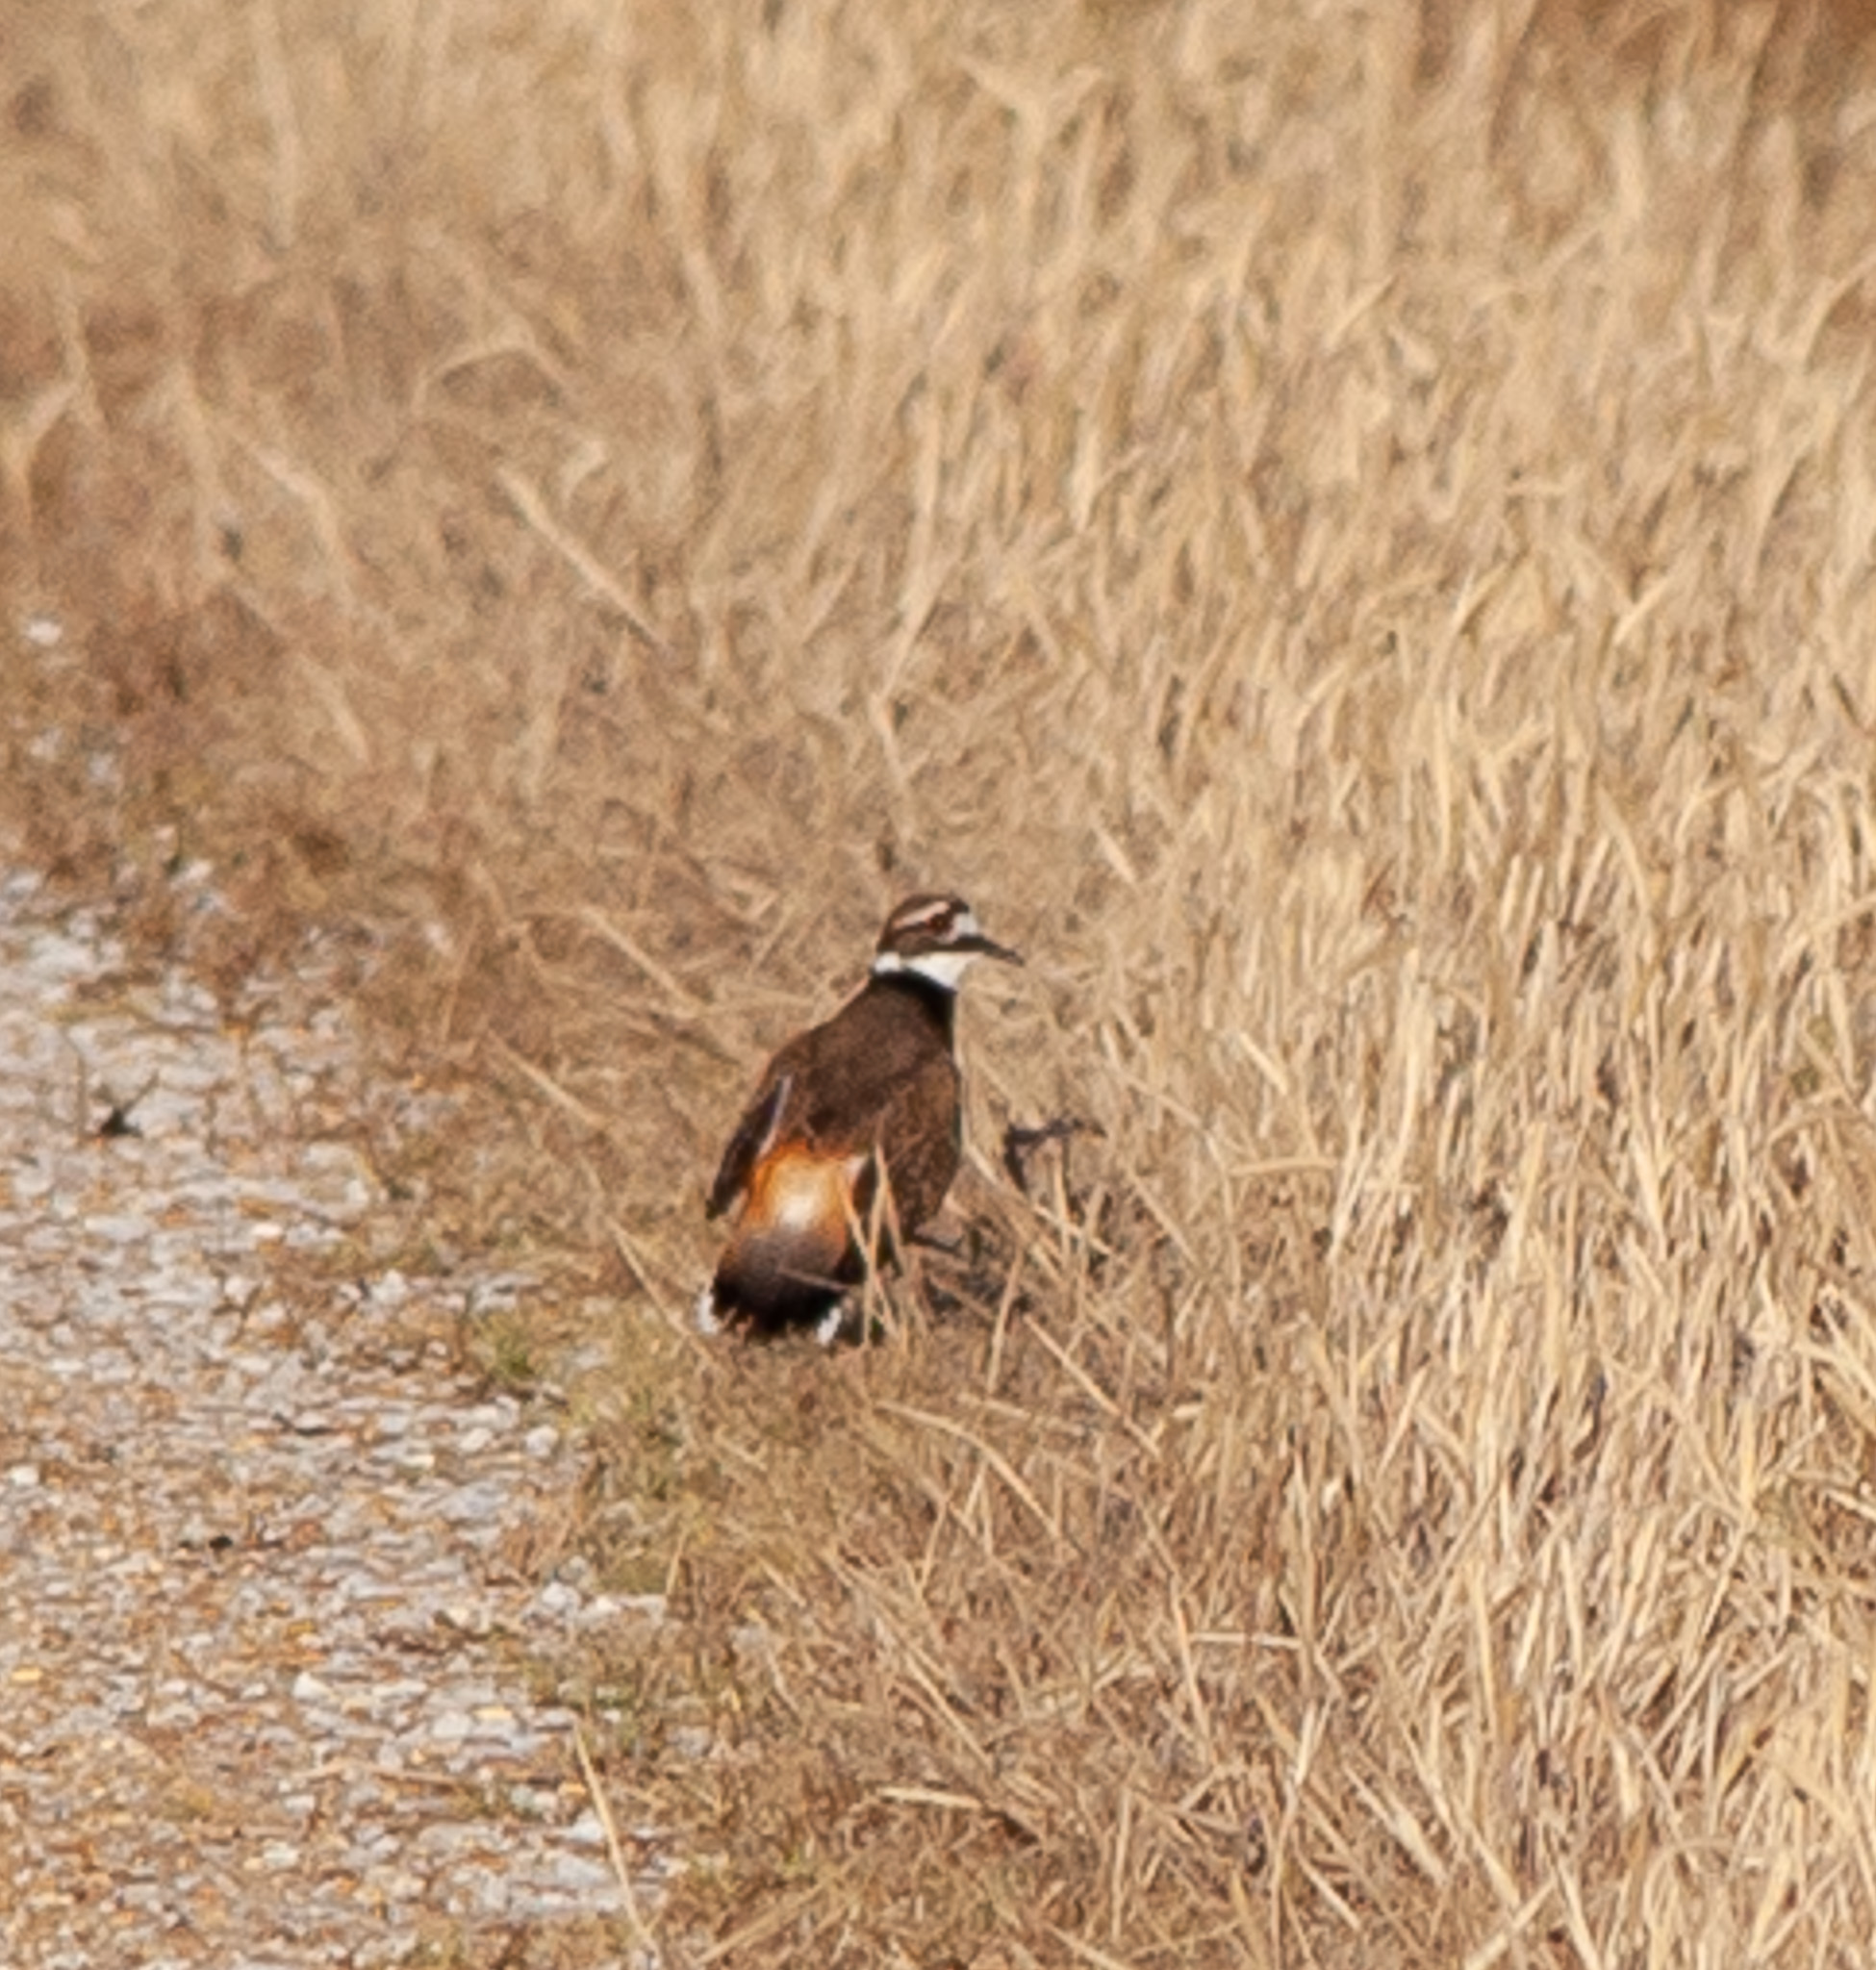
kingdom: Animalia
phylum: Chordata
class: Aves
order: Charadriiformes
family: Charadriidae
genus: Charadrius
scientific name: Charadrius vociferus
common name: Killdeer
